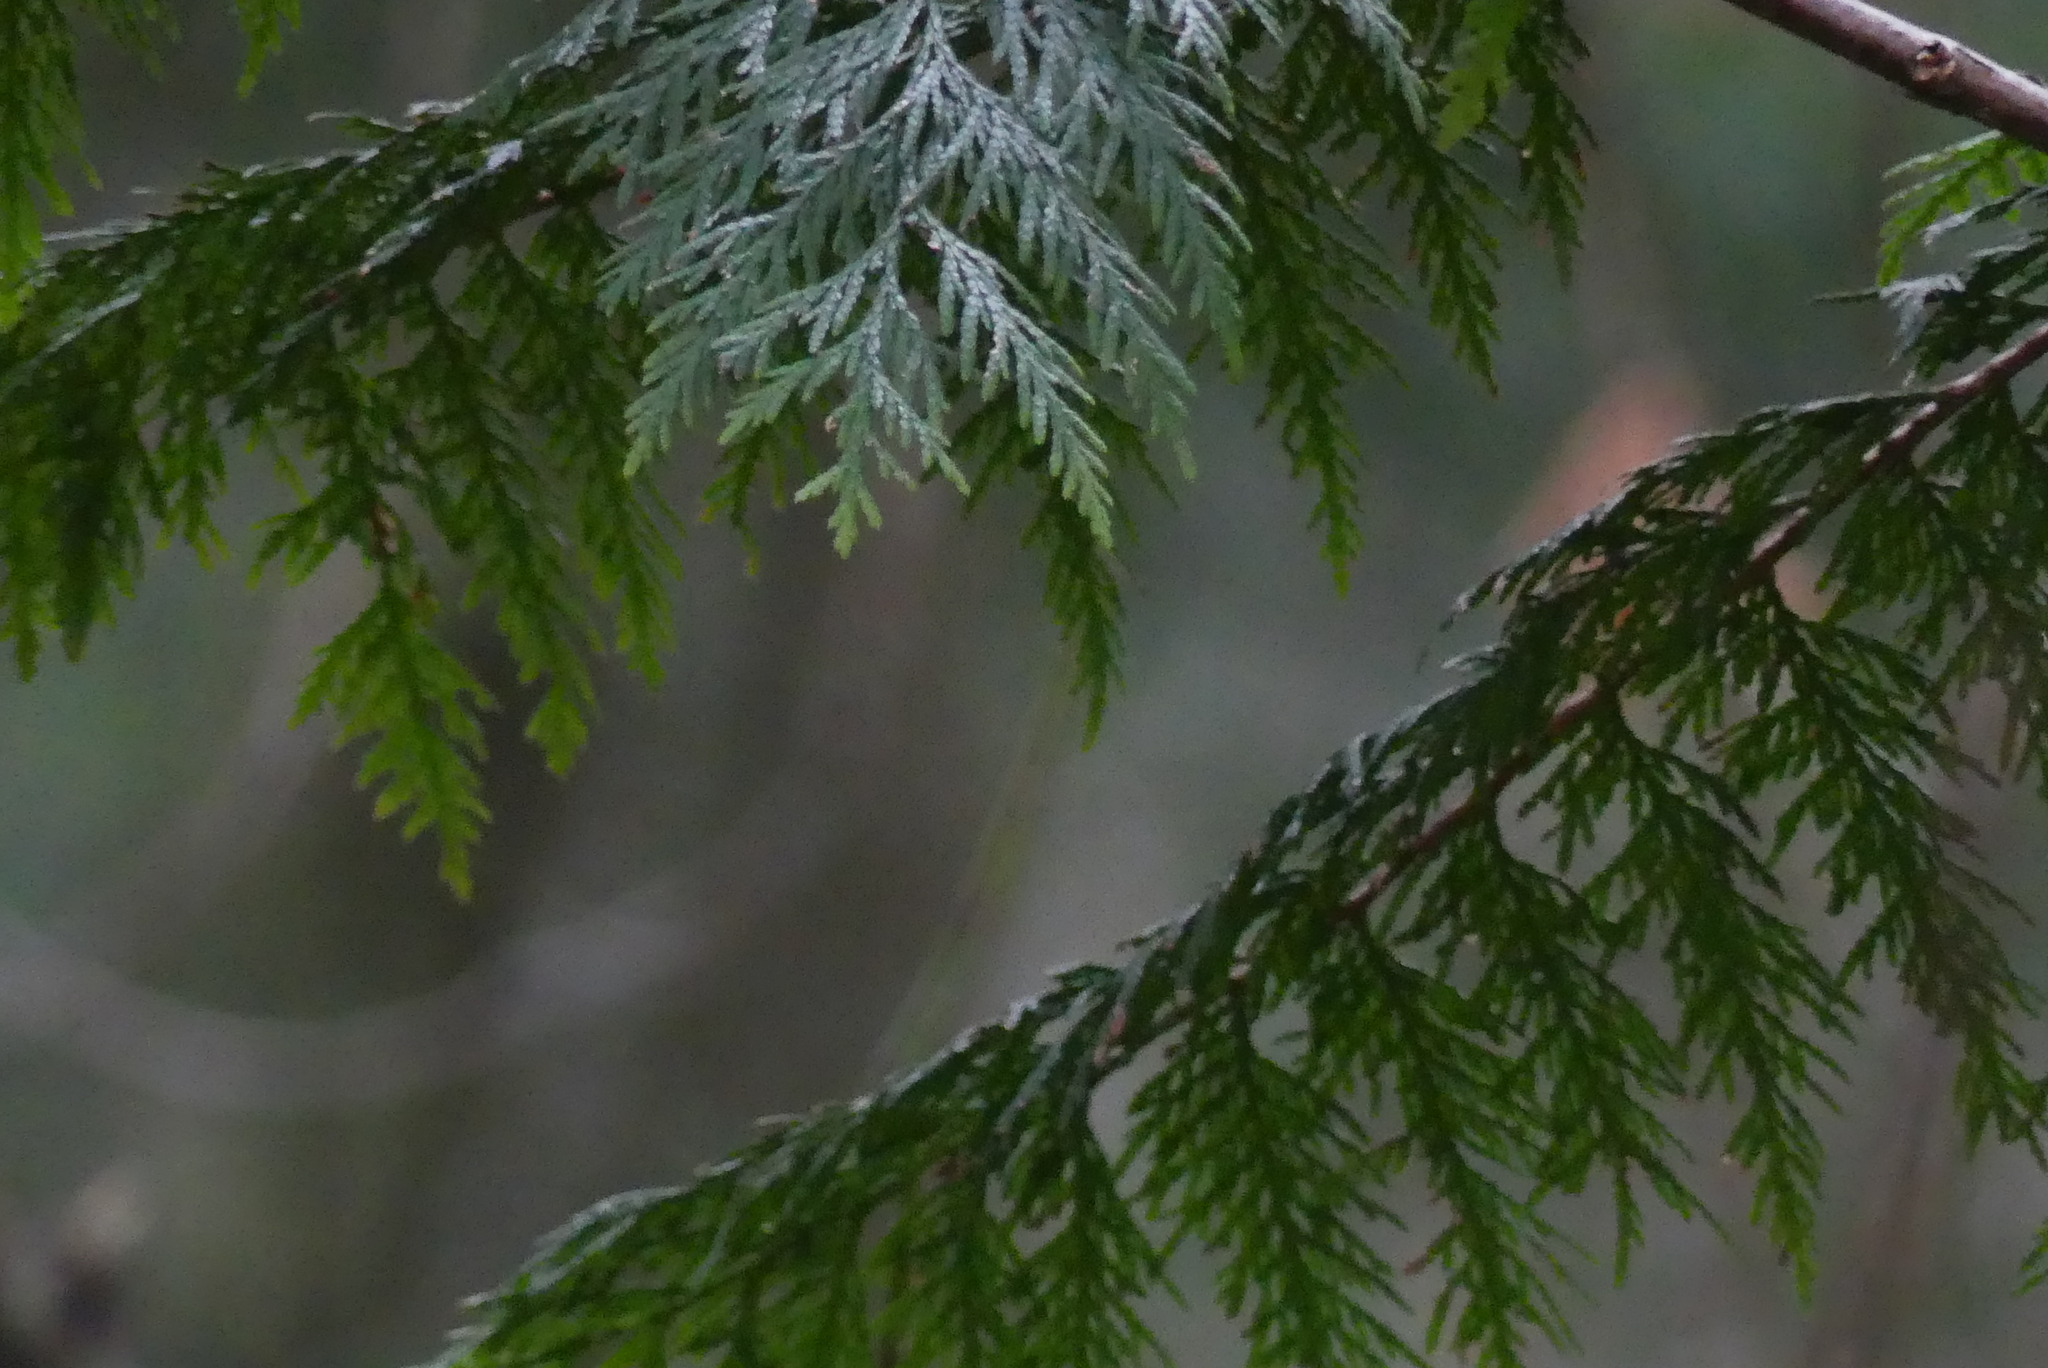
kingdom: Plantae
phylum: Tracheophyta
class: Pinopsida
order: Pinales
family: Cupressaceae
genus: Thuja
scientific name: Thuja plicata
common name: Western red-cedar
